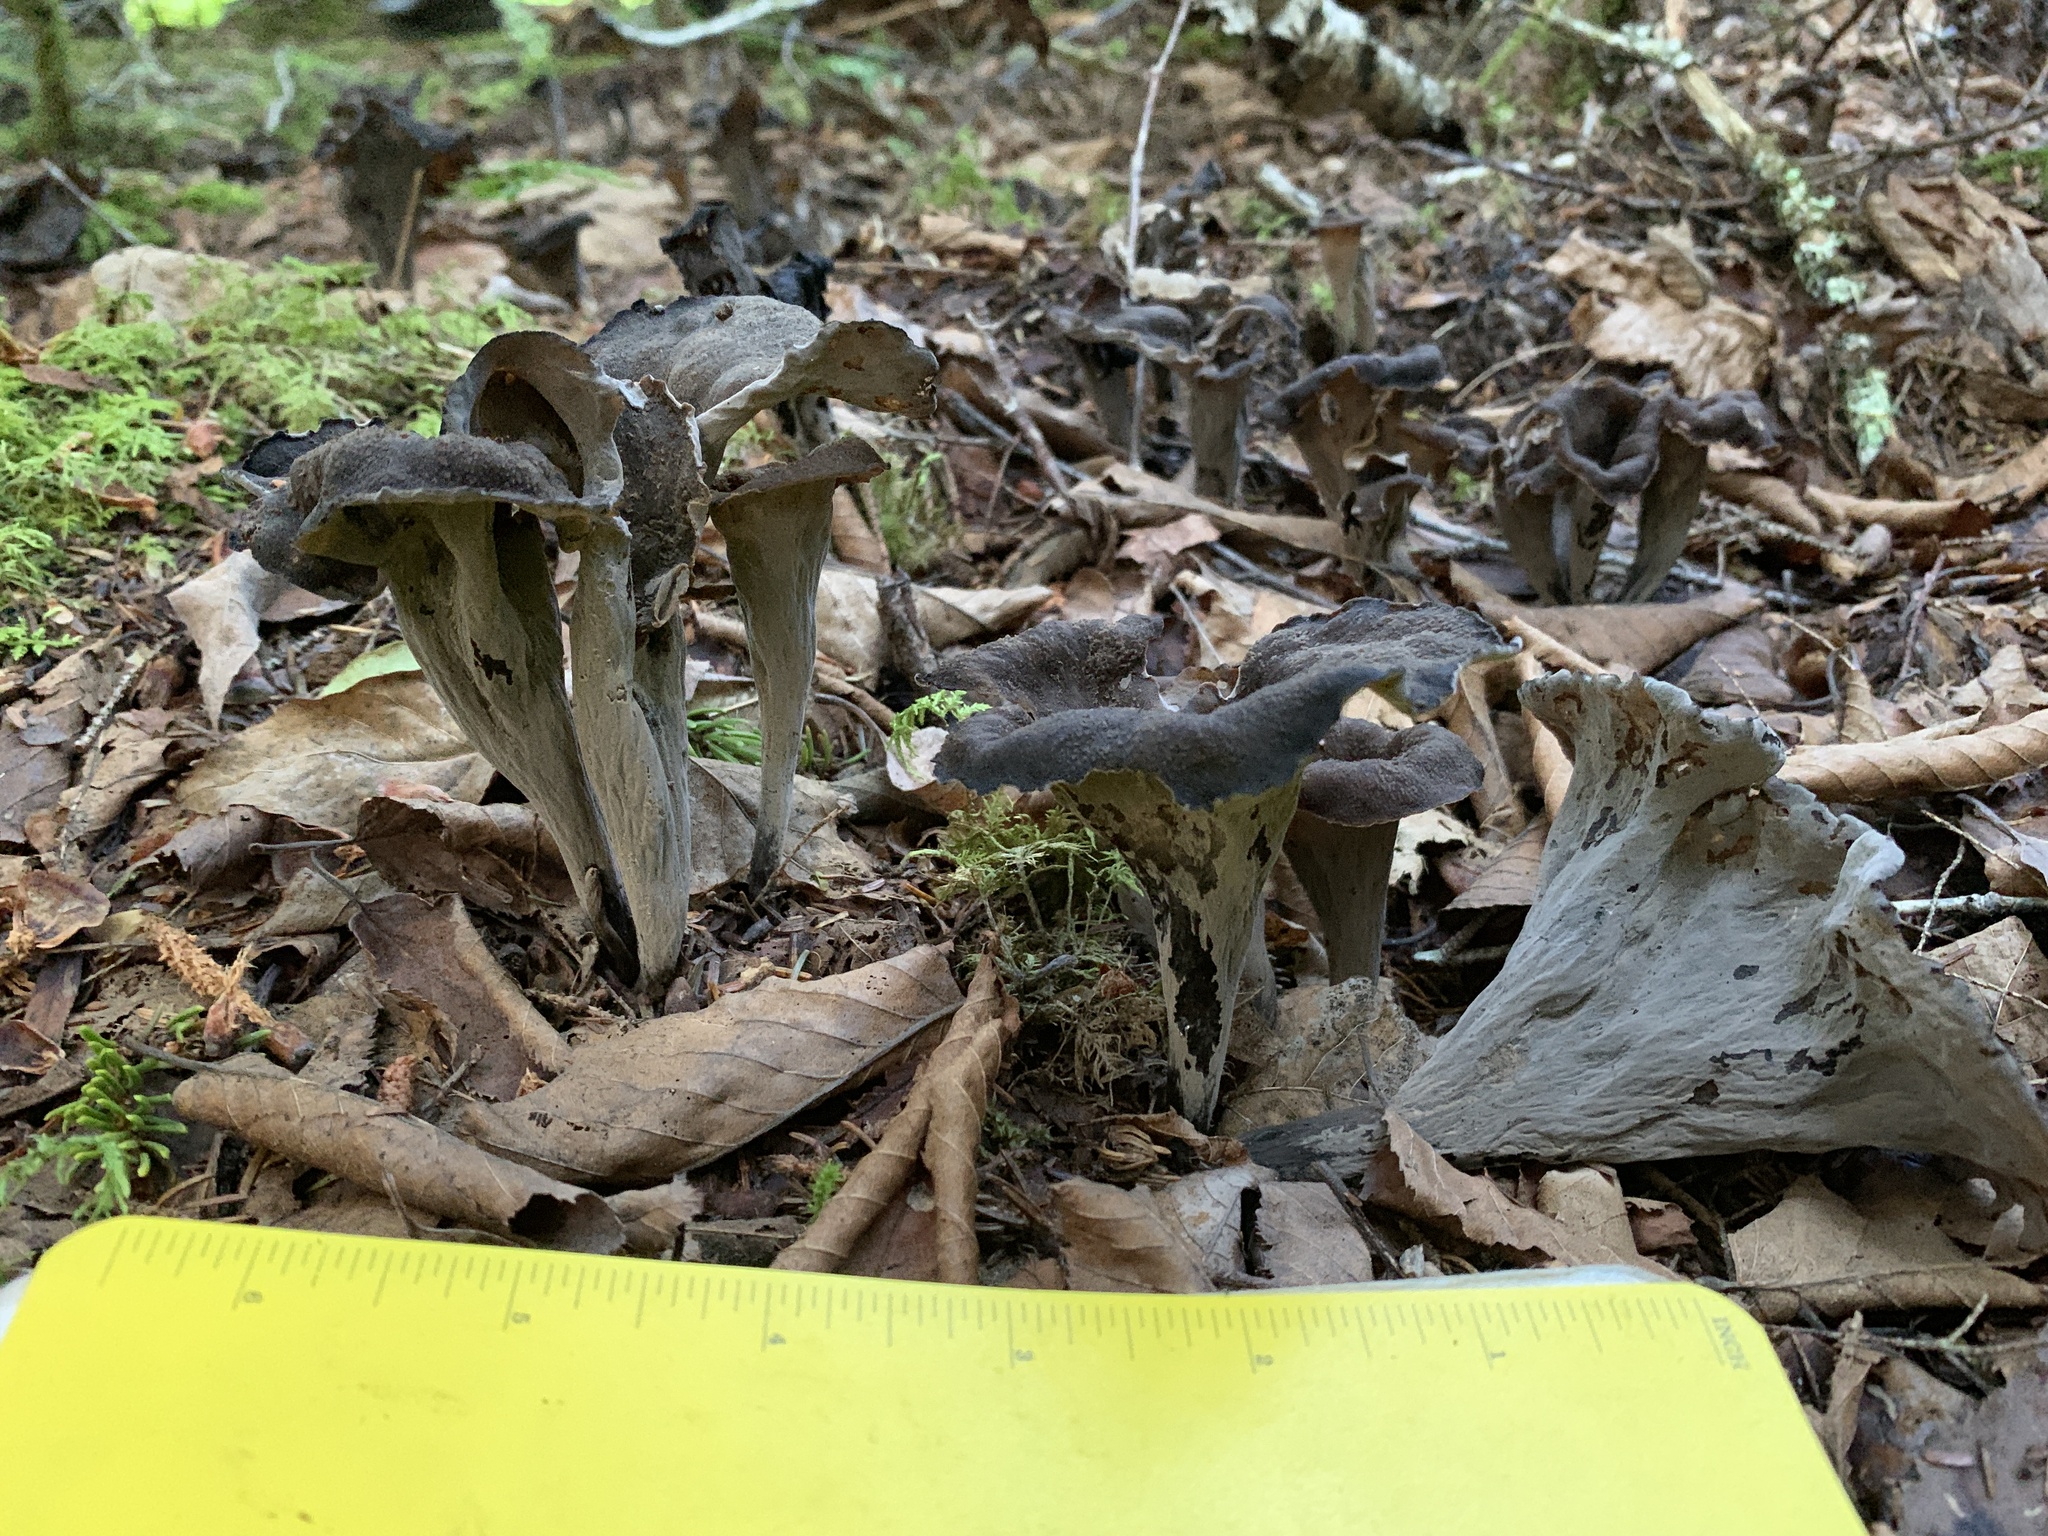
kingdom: Fungi
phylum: Basidiomycota
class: Agaricomycetes
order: Cantharellales
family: Hydnaceae
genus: Craterellus
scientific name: Craterellus cornucopioides
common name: Horn of plenty
